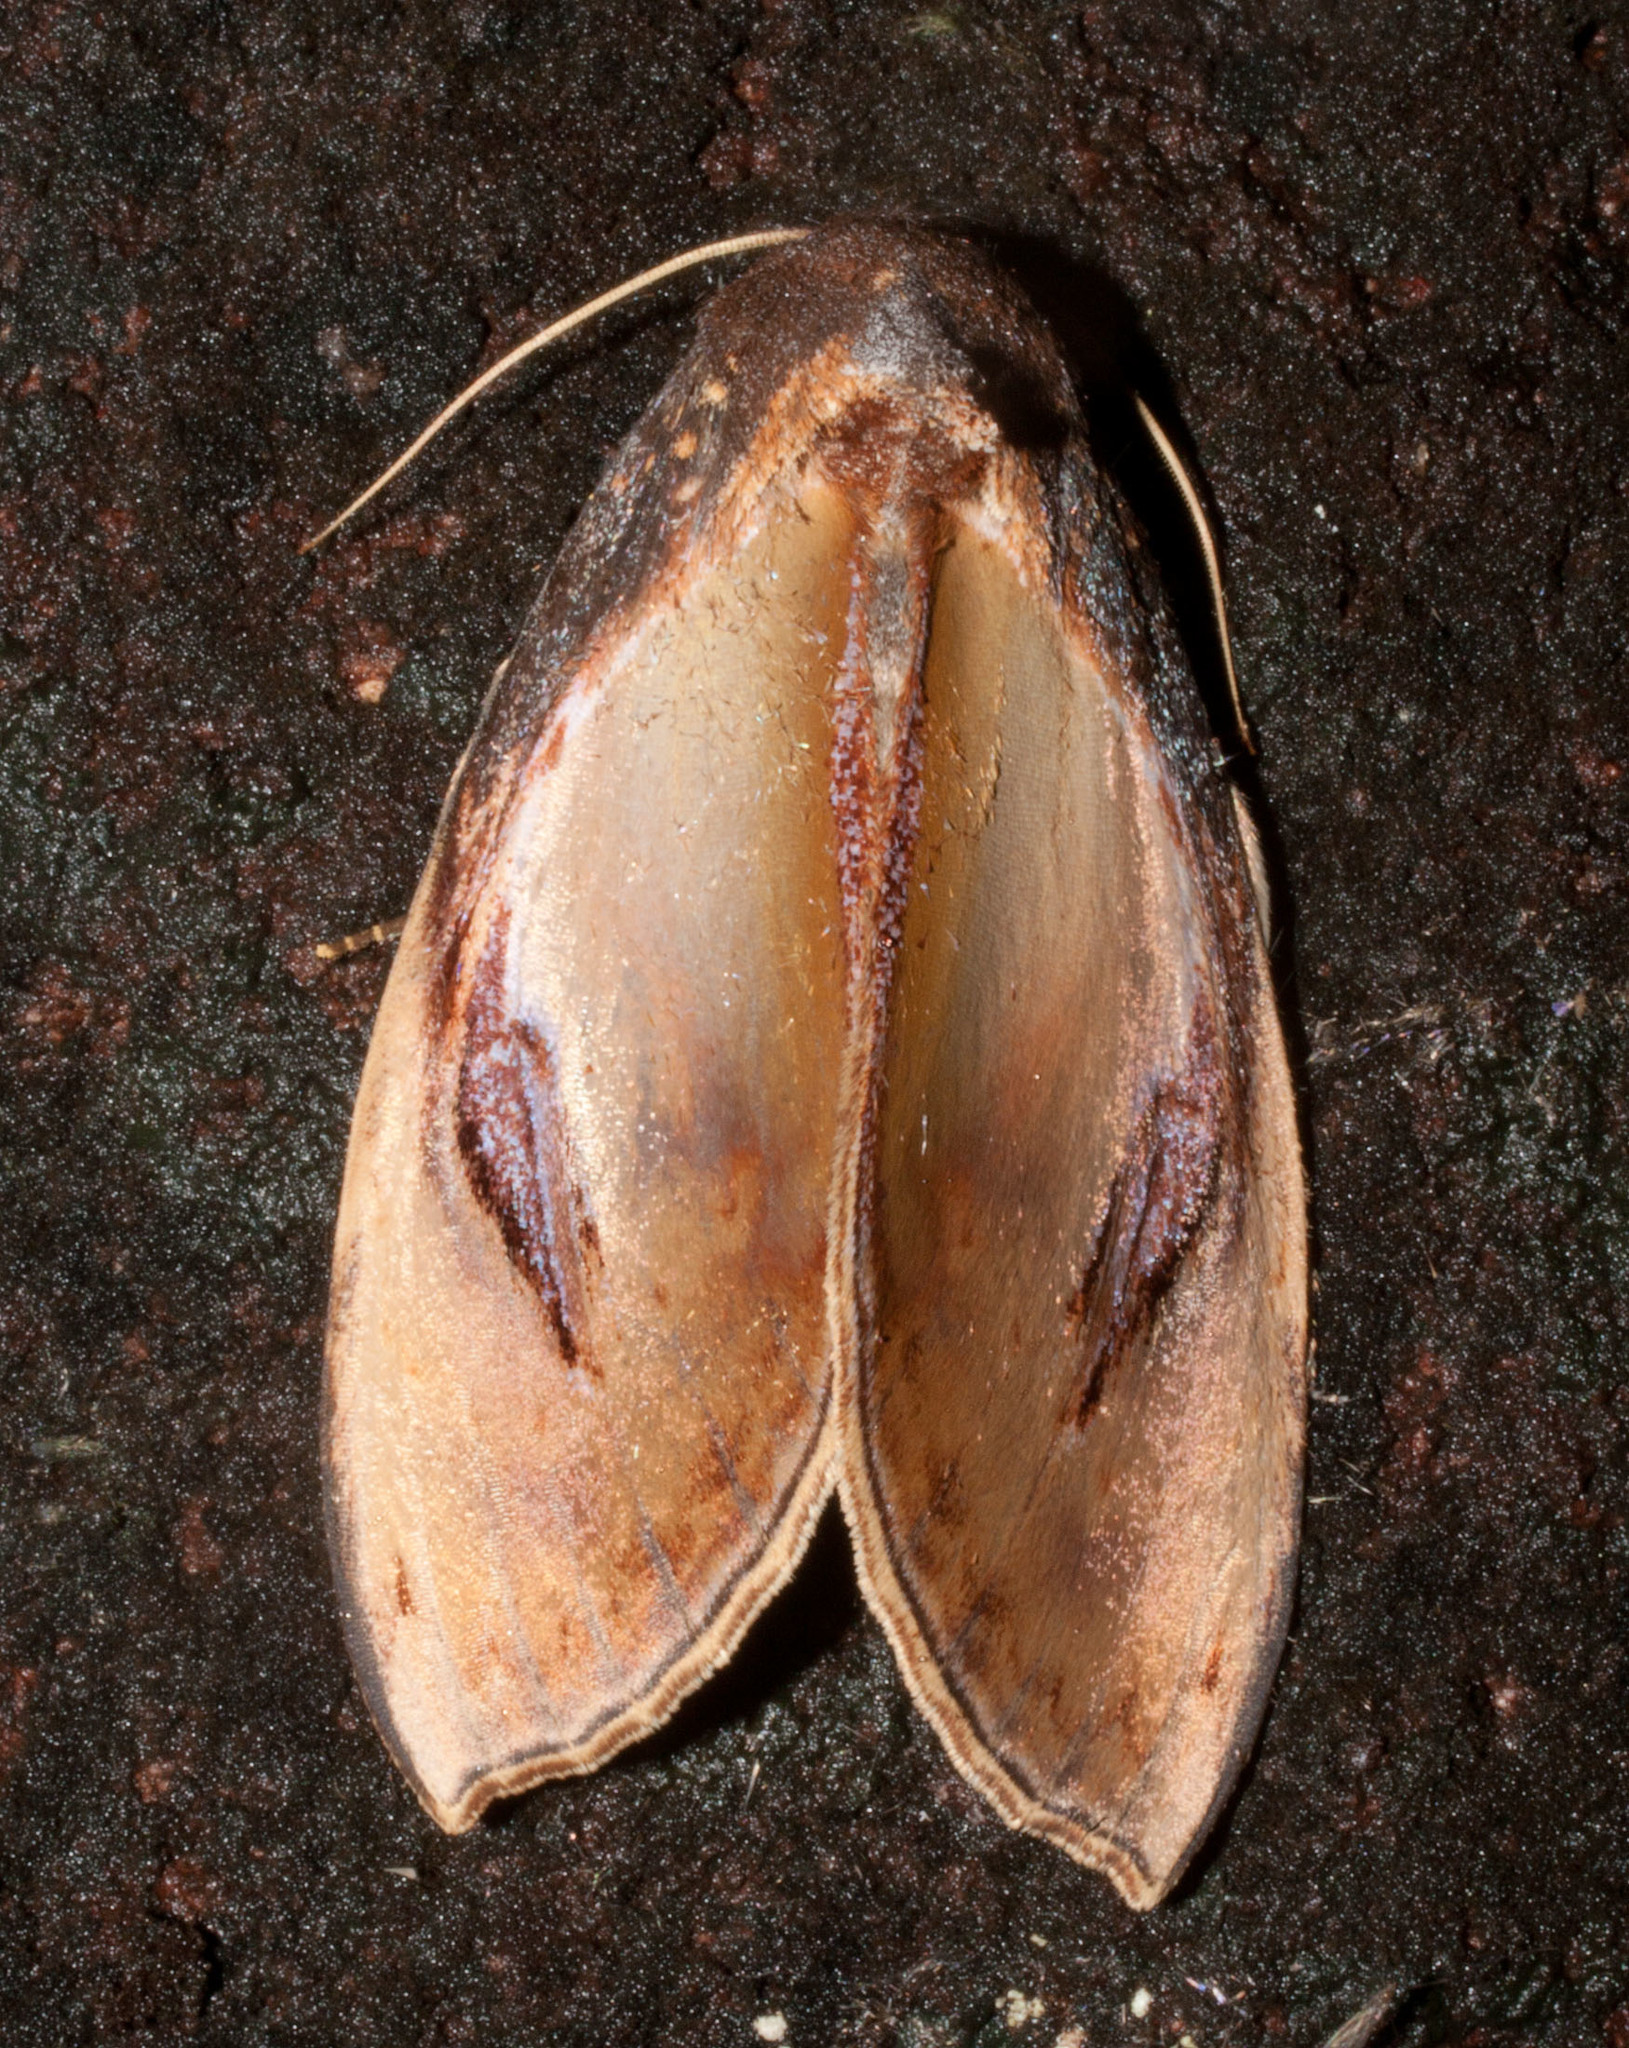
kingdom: Animalia
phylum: Arthropoda
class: Insecta
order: Lepidoptera
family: Notodontidae
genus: Crinodes
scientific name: Crinodes bellatrix
